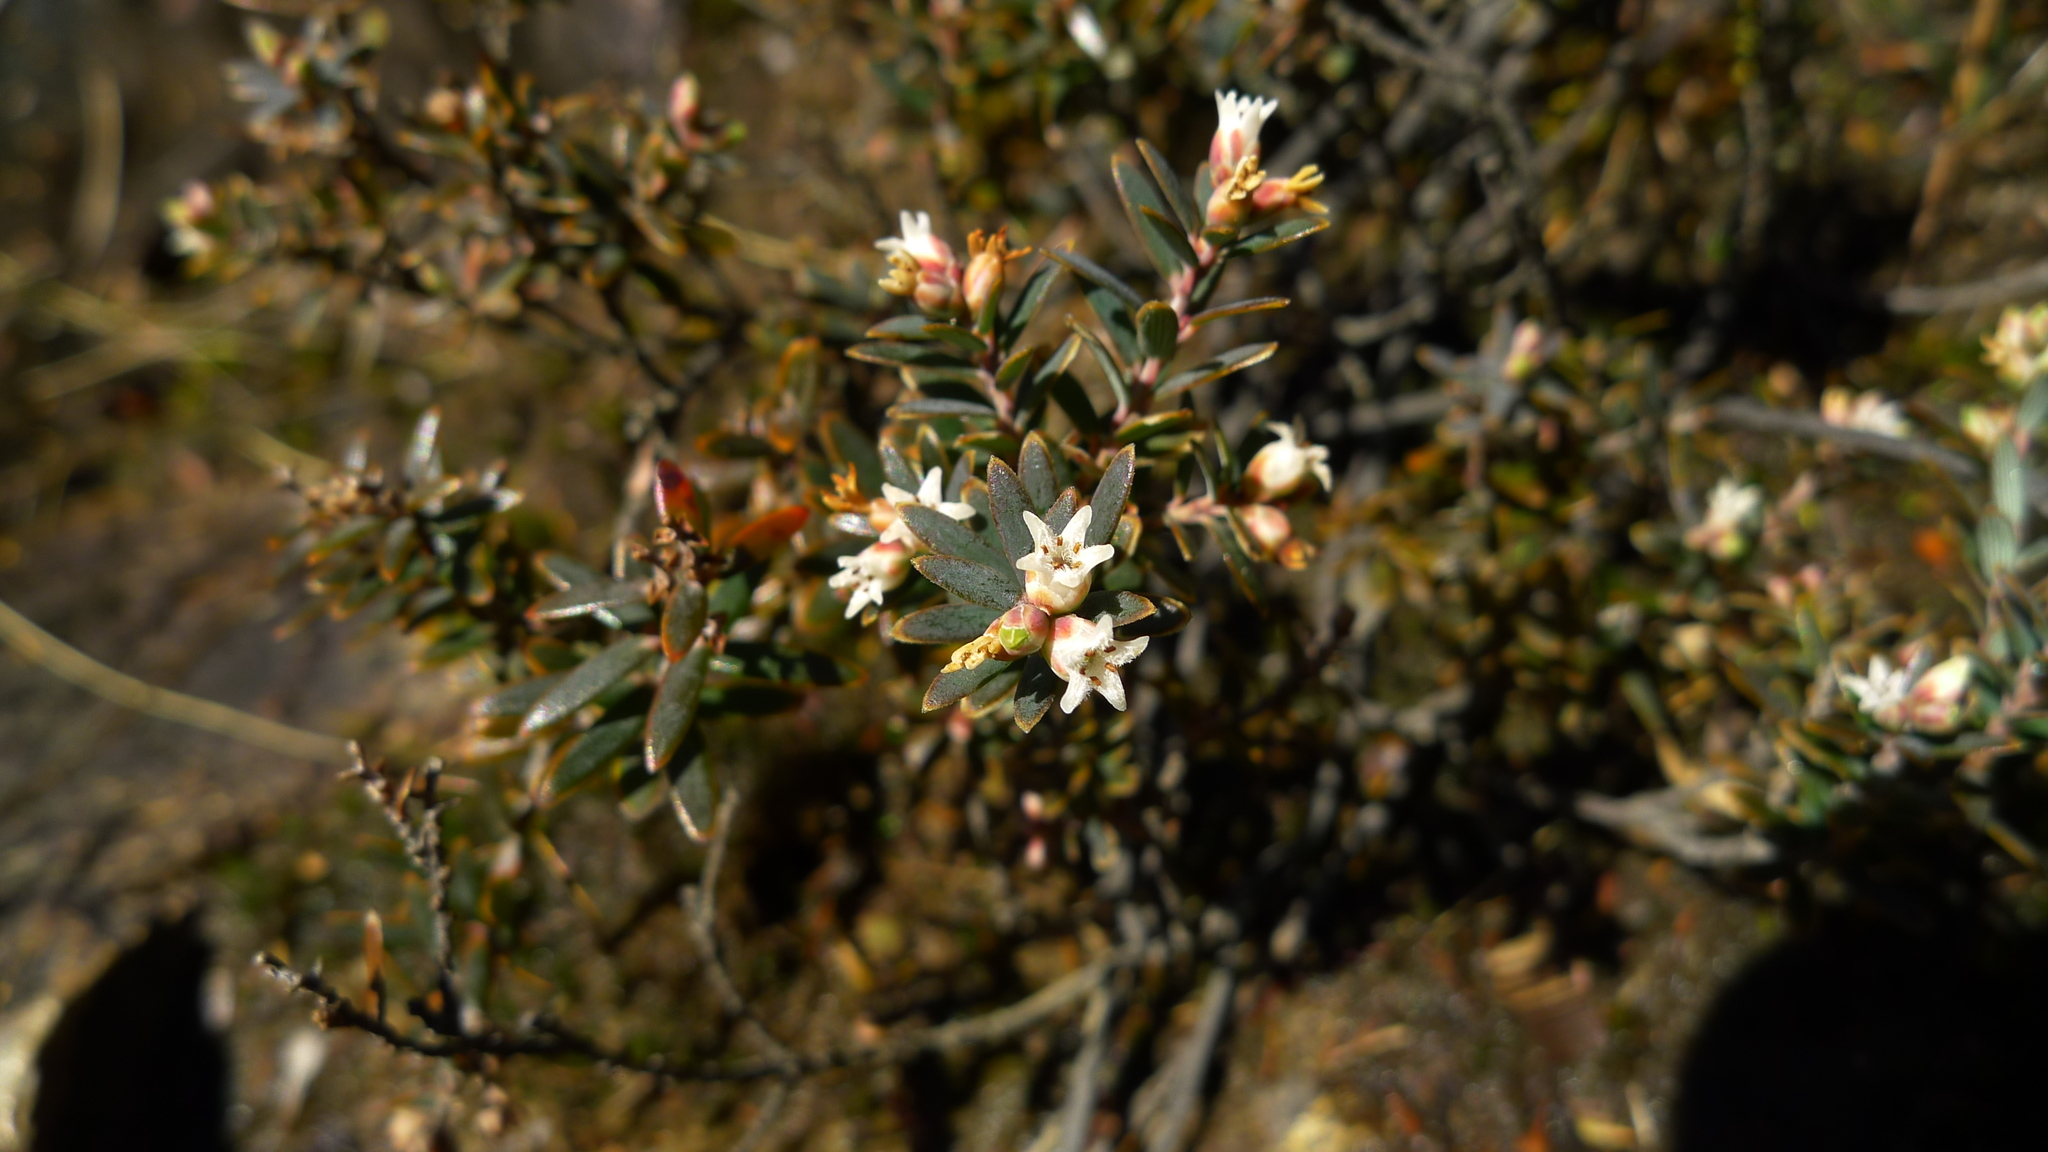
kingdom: Plantae
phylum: Tracheophyta
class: Magnoliopsida
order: Ericales
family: Ericaceae
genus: Acrothamnus
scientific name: Acrothamnus colensoi
